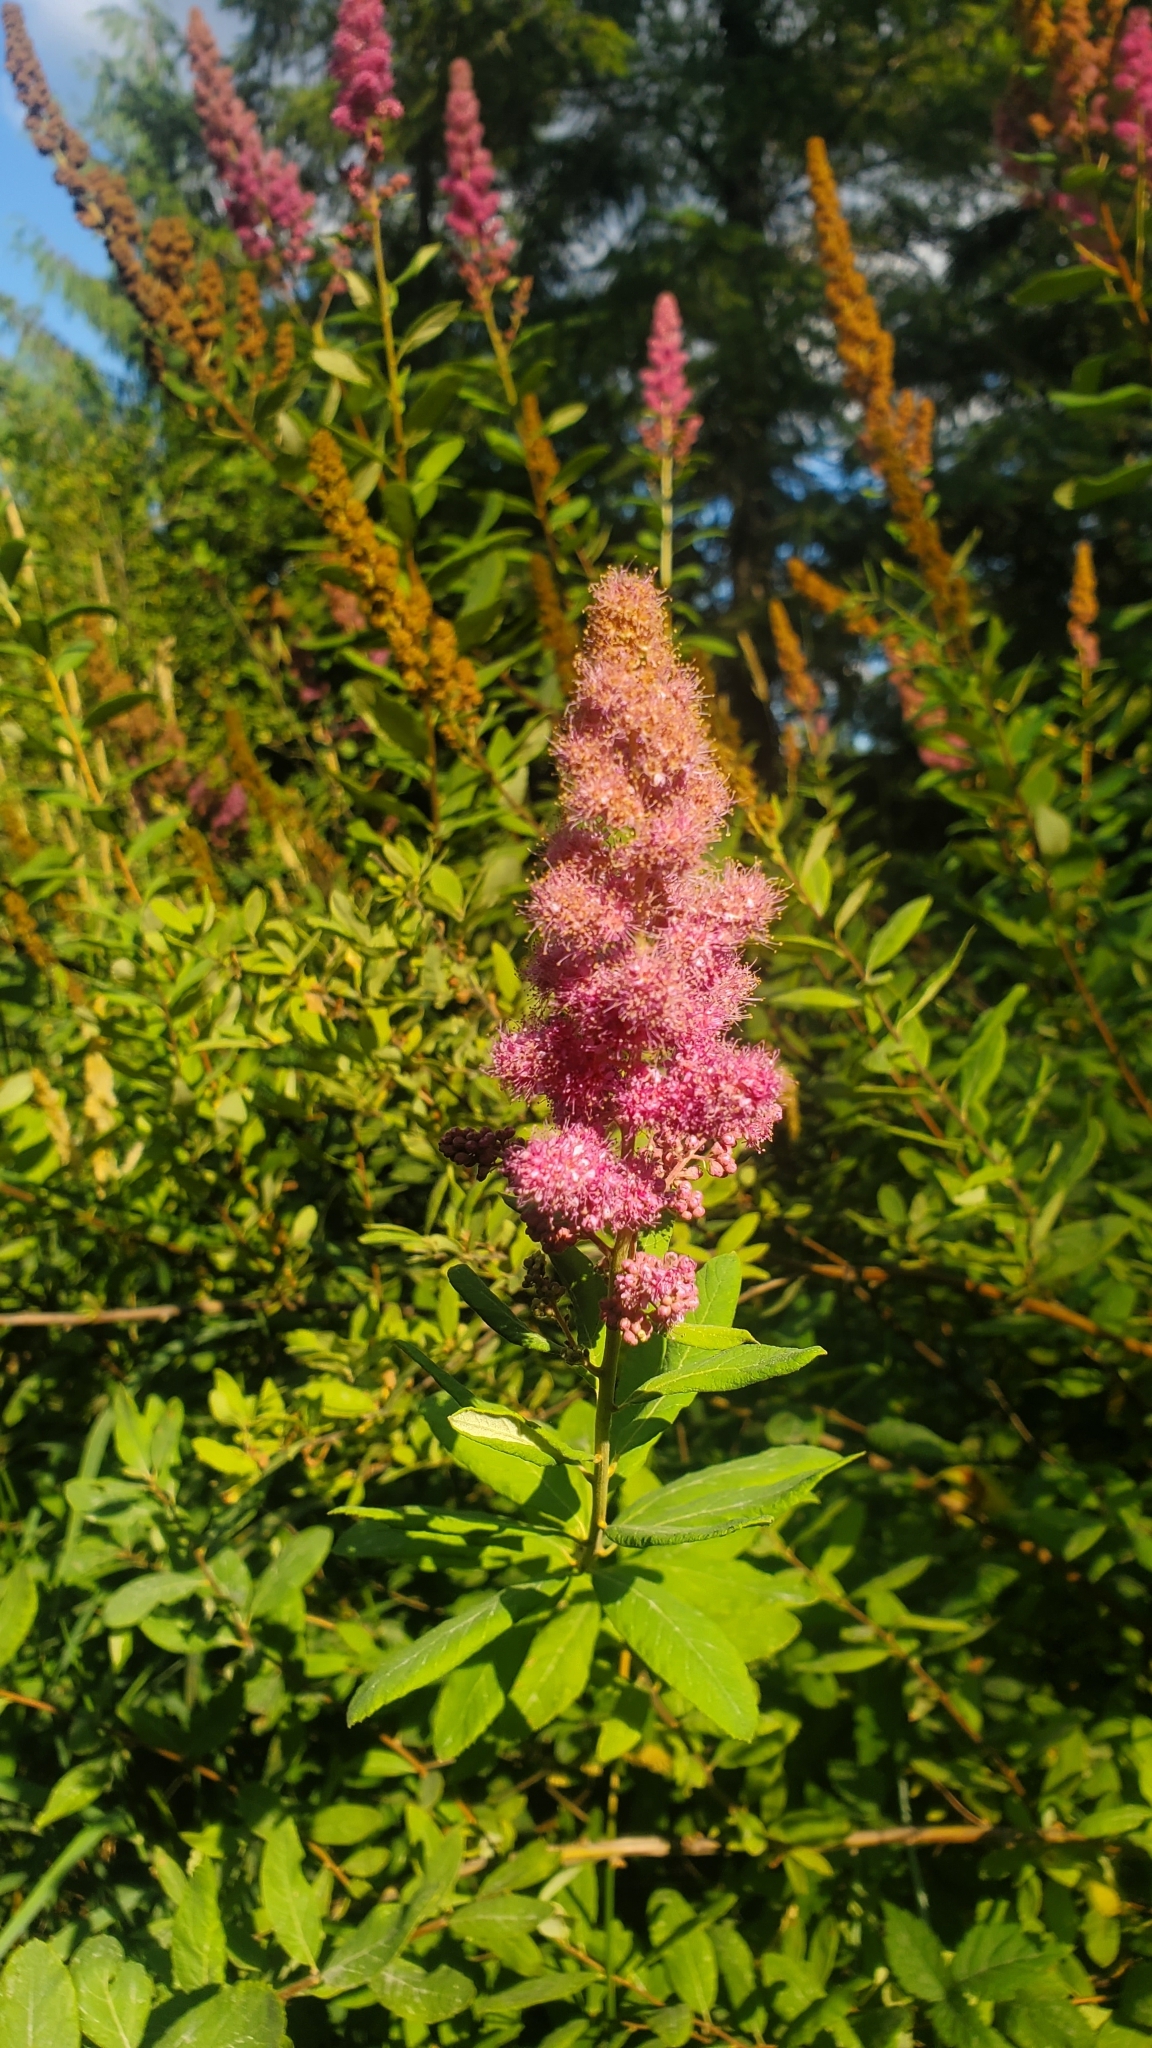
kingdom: Plantae
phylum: Tracheophyta
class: Magnoliopsida
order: Rosales
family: Rosaceae
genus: Spiraea
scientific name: Spiraea douglasii
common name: Steeplebush
